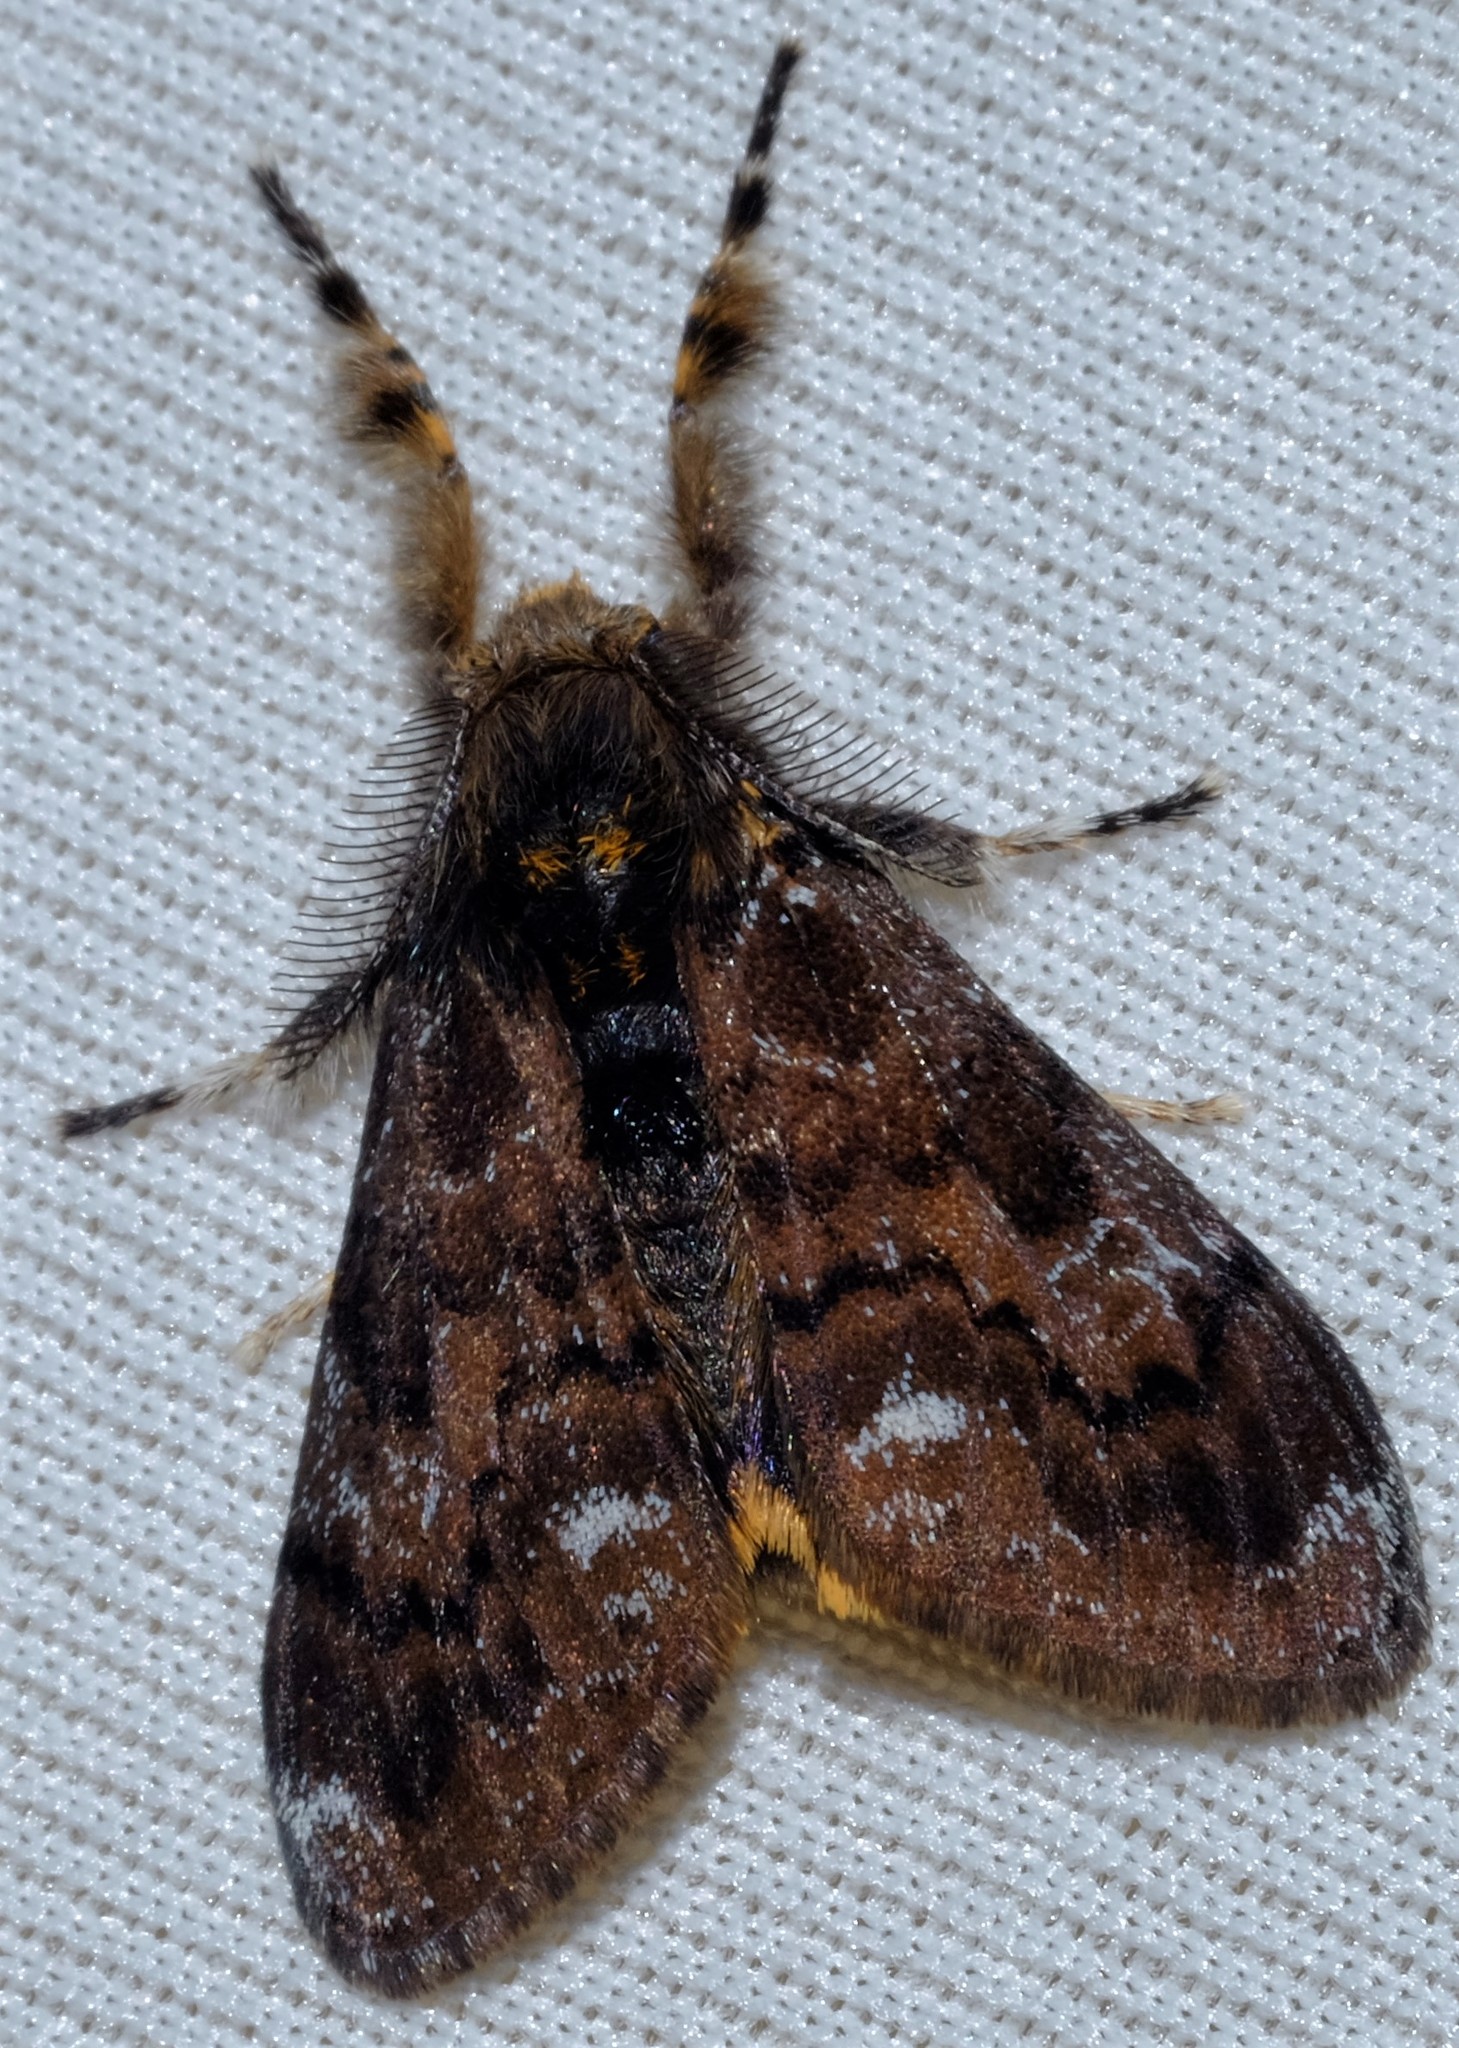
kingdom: Animalia
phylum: Arthropoda
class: Insecta
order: Lepidoptera
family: Erebidae
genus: Orgyia
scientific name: Orgyia
